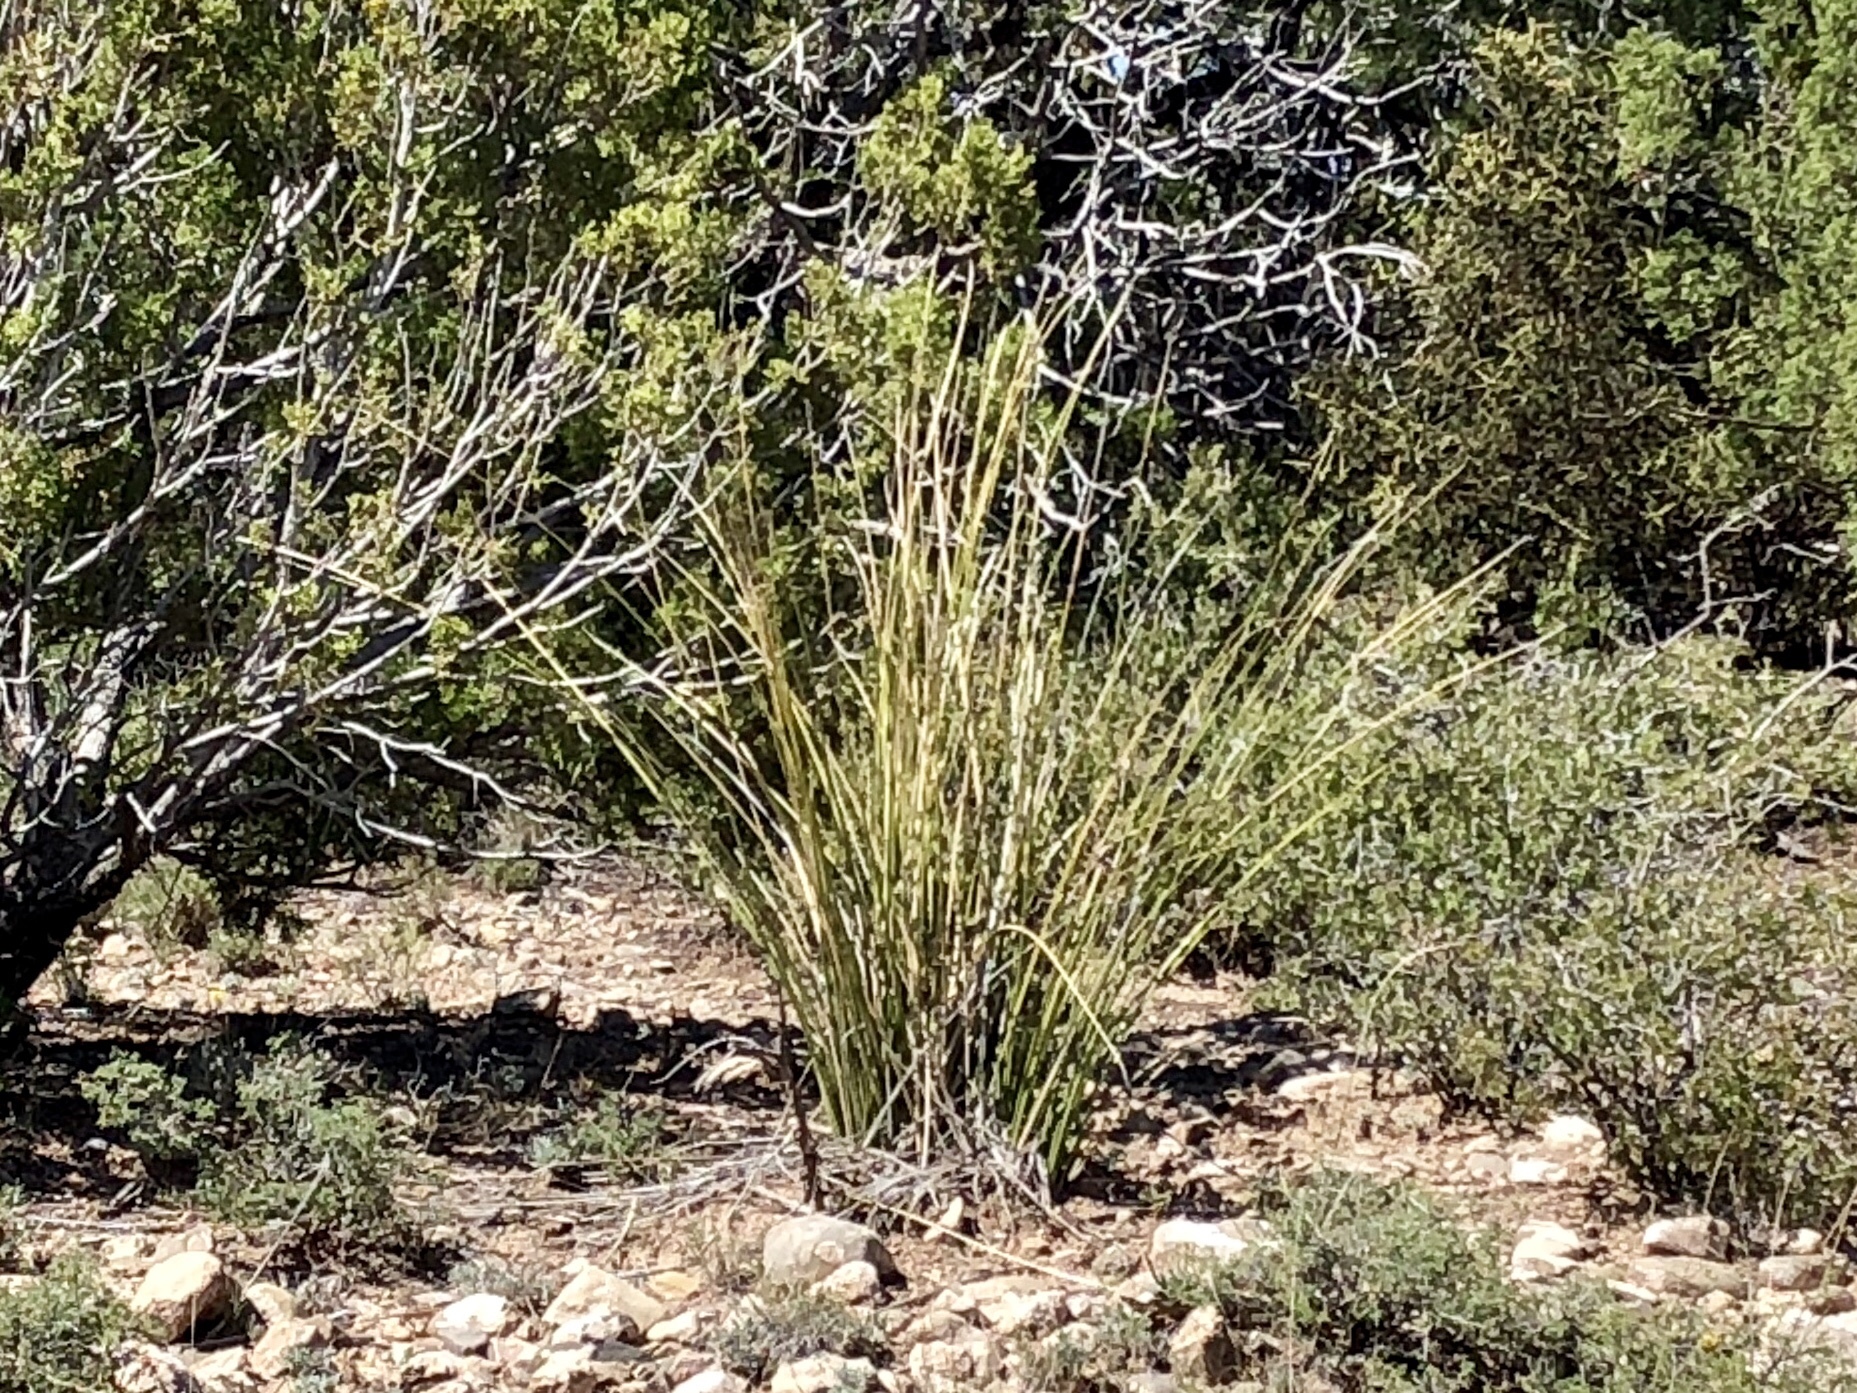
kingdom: Plantae
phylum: Tracheophyta
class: Liliopsida
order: Asparagales
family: Asparagaceae
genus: Nolina
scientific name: Nolina microcarpa
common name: Bear-grass
